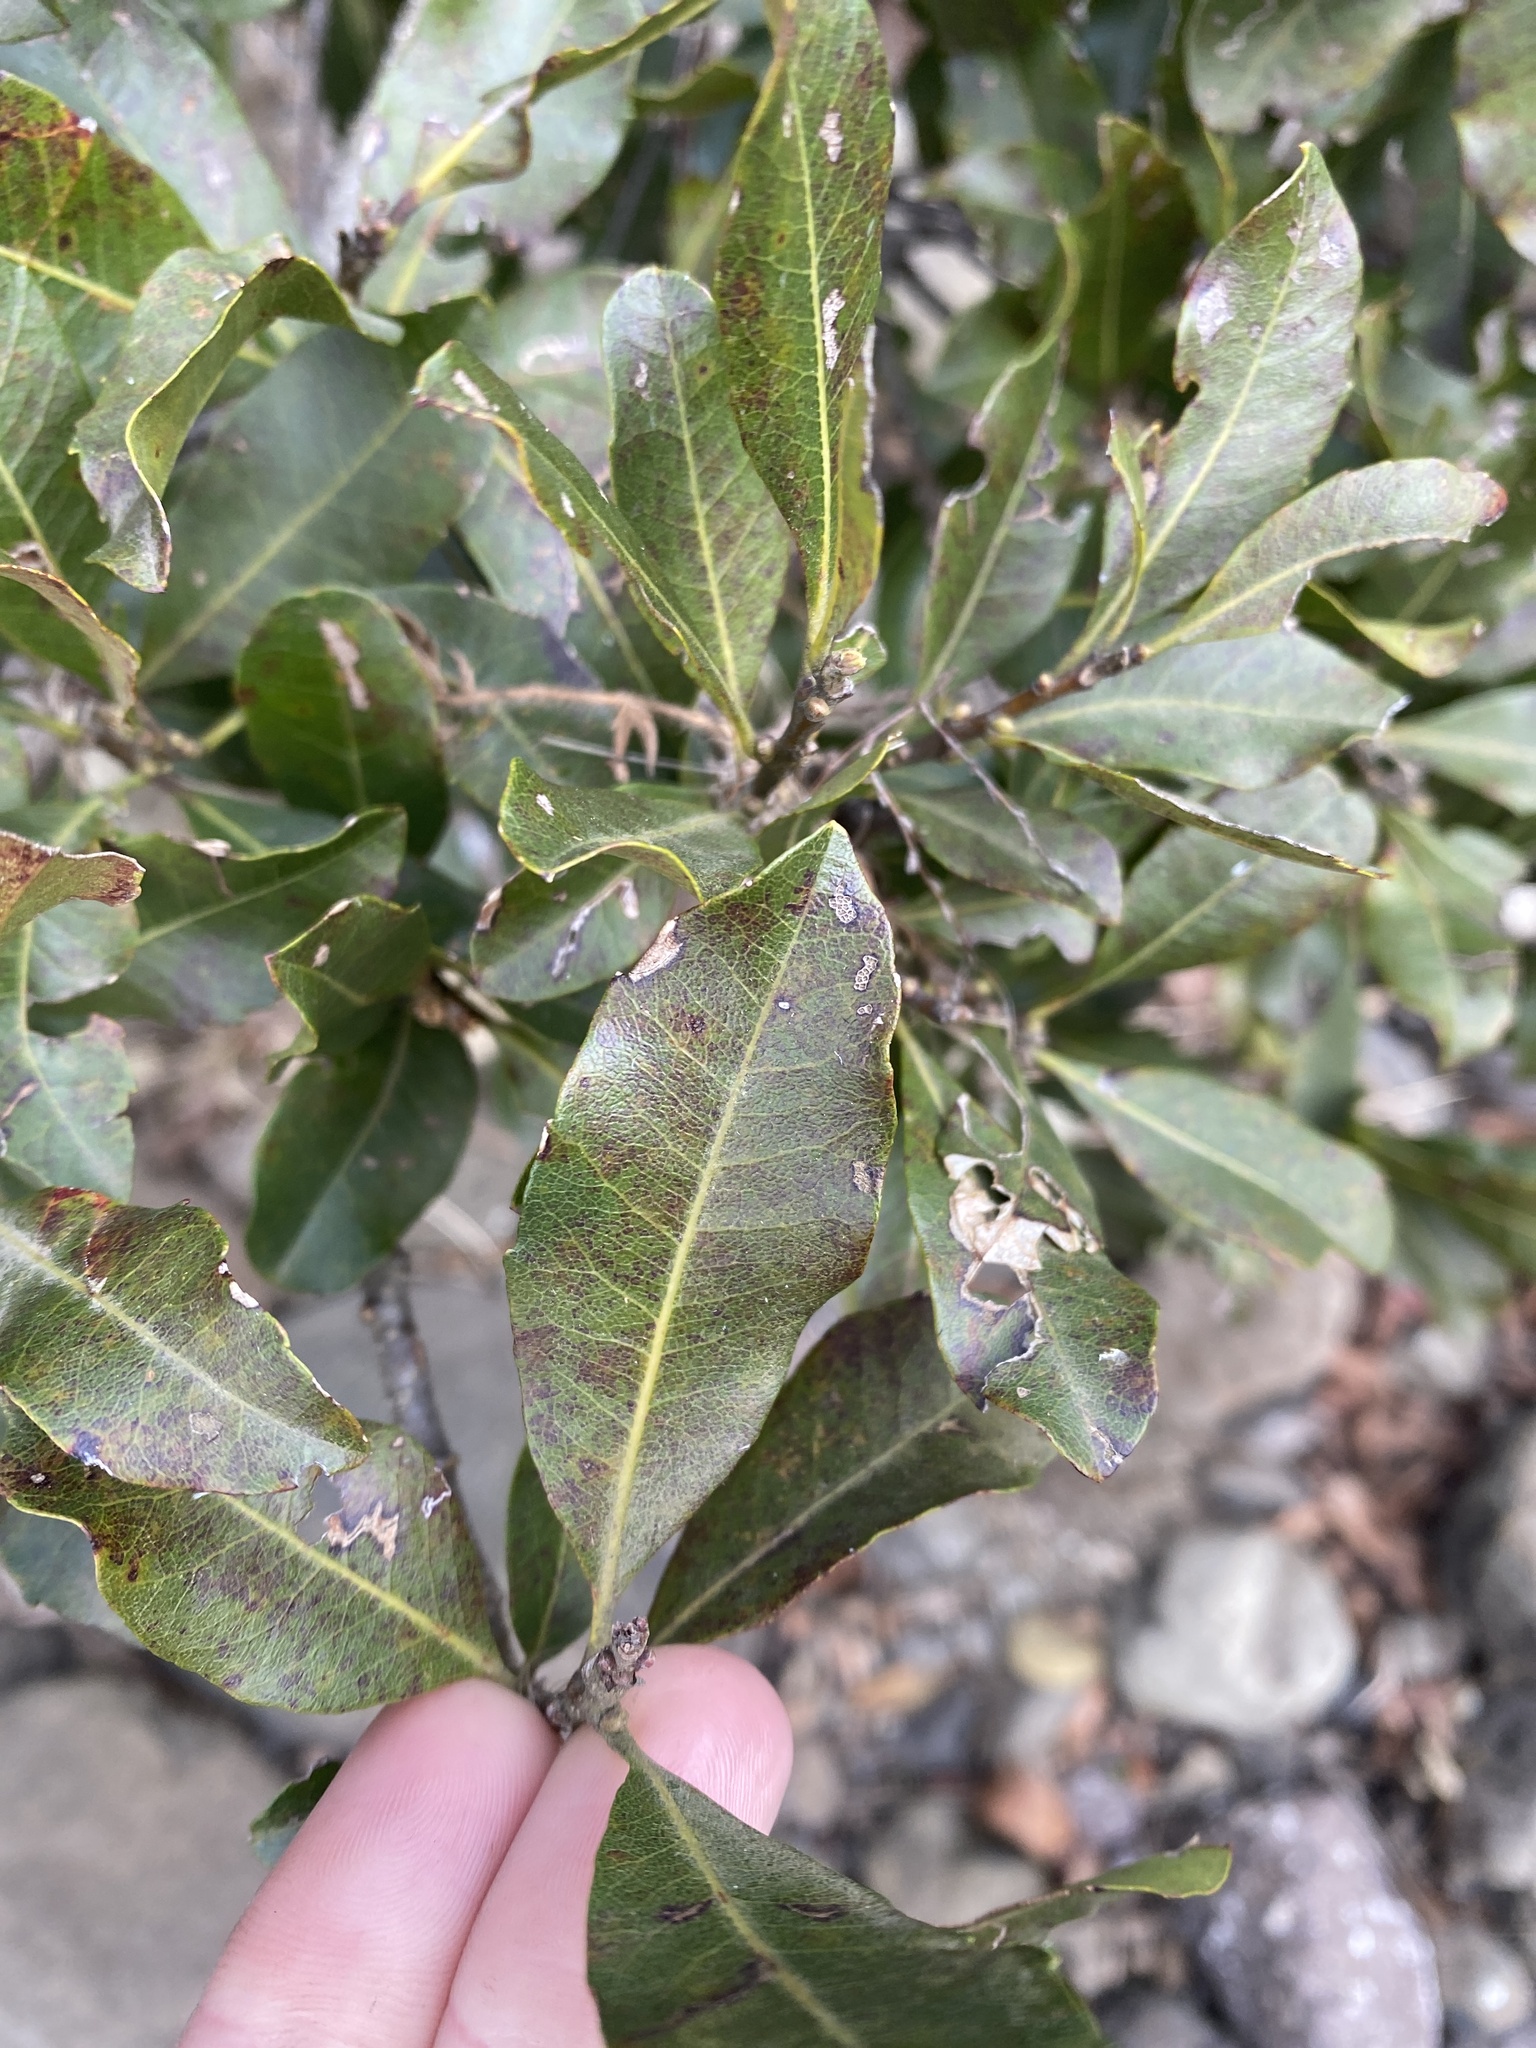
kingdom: Plantae
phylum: Tracheophyta
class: Magnoliopsida
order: Fagales
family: Myricaceae
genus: Morella
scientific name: Morella pilulifera
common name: Broad-leaved waxberry
